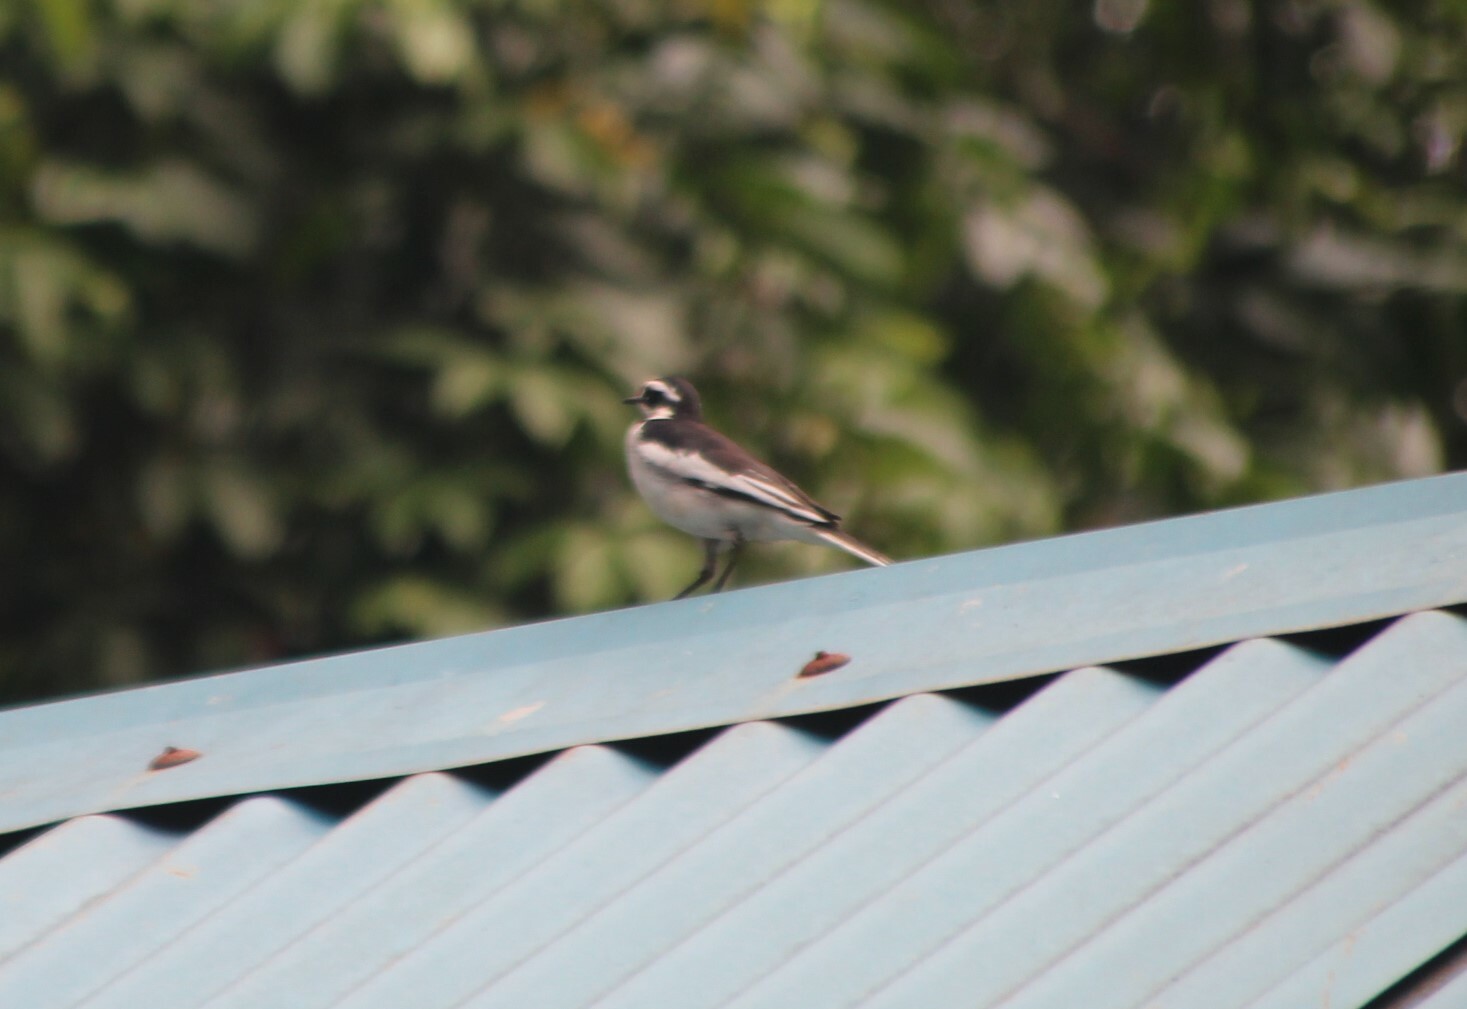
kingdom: Animalia
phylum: Chordata
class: Aves
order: Passeriformes
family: Motacillidae
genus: Motacilla
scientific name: Motacilla aguimp
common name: African pied wagtail
